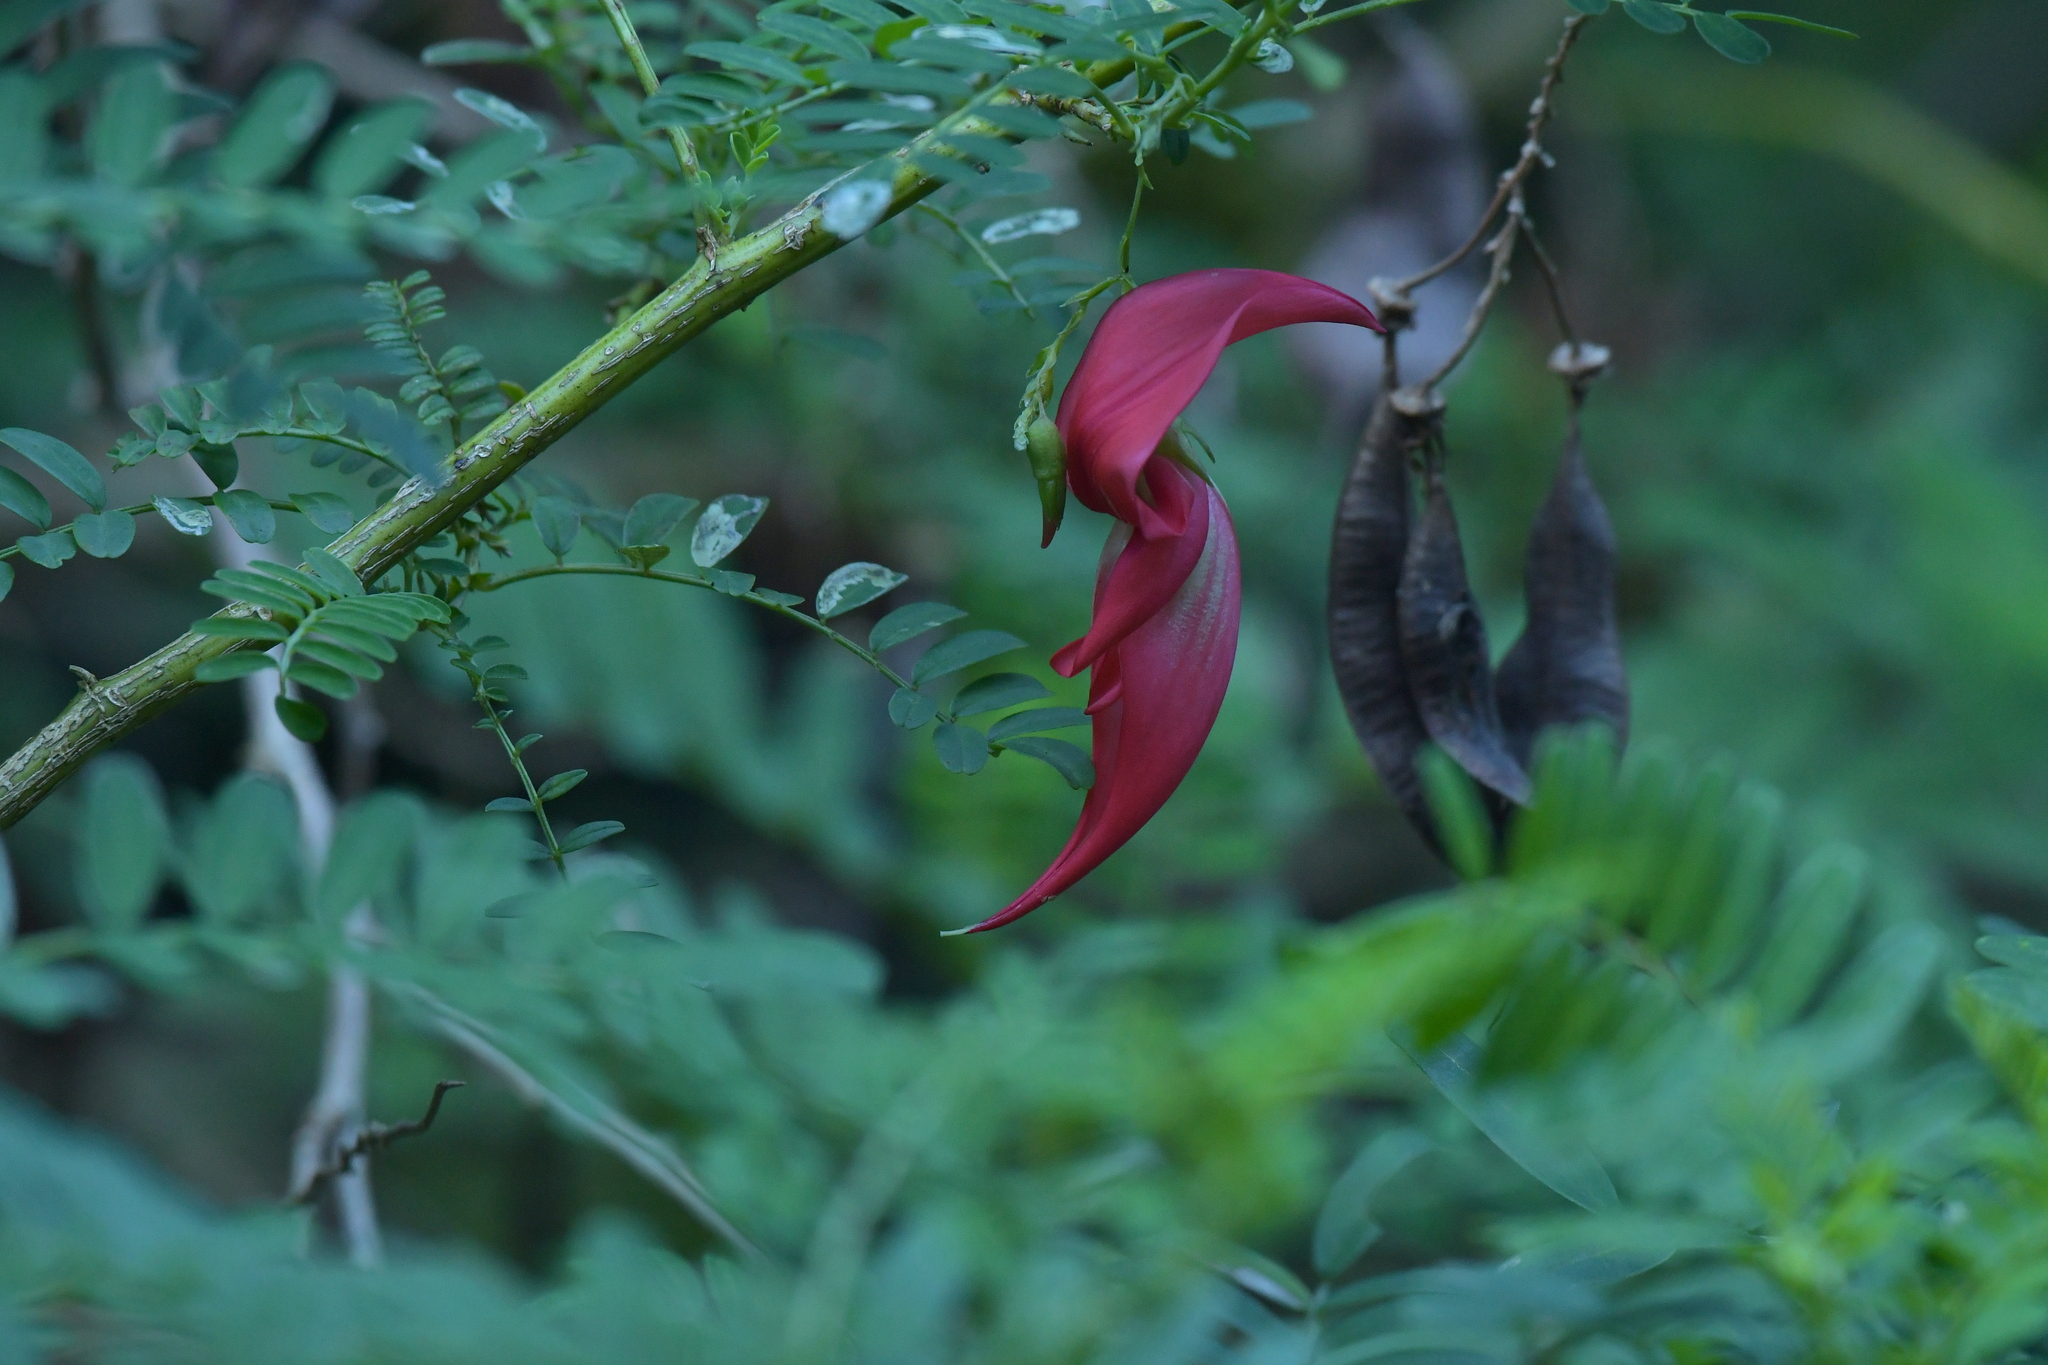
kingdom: Plantae
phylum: Tracheophyta
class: Magnoliopsida
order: Fabales
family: Fabaceae
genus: Clianthus
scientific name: Clianthus puniceus
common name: Kaka-beak
